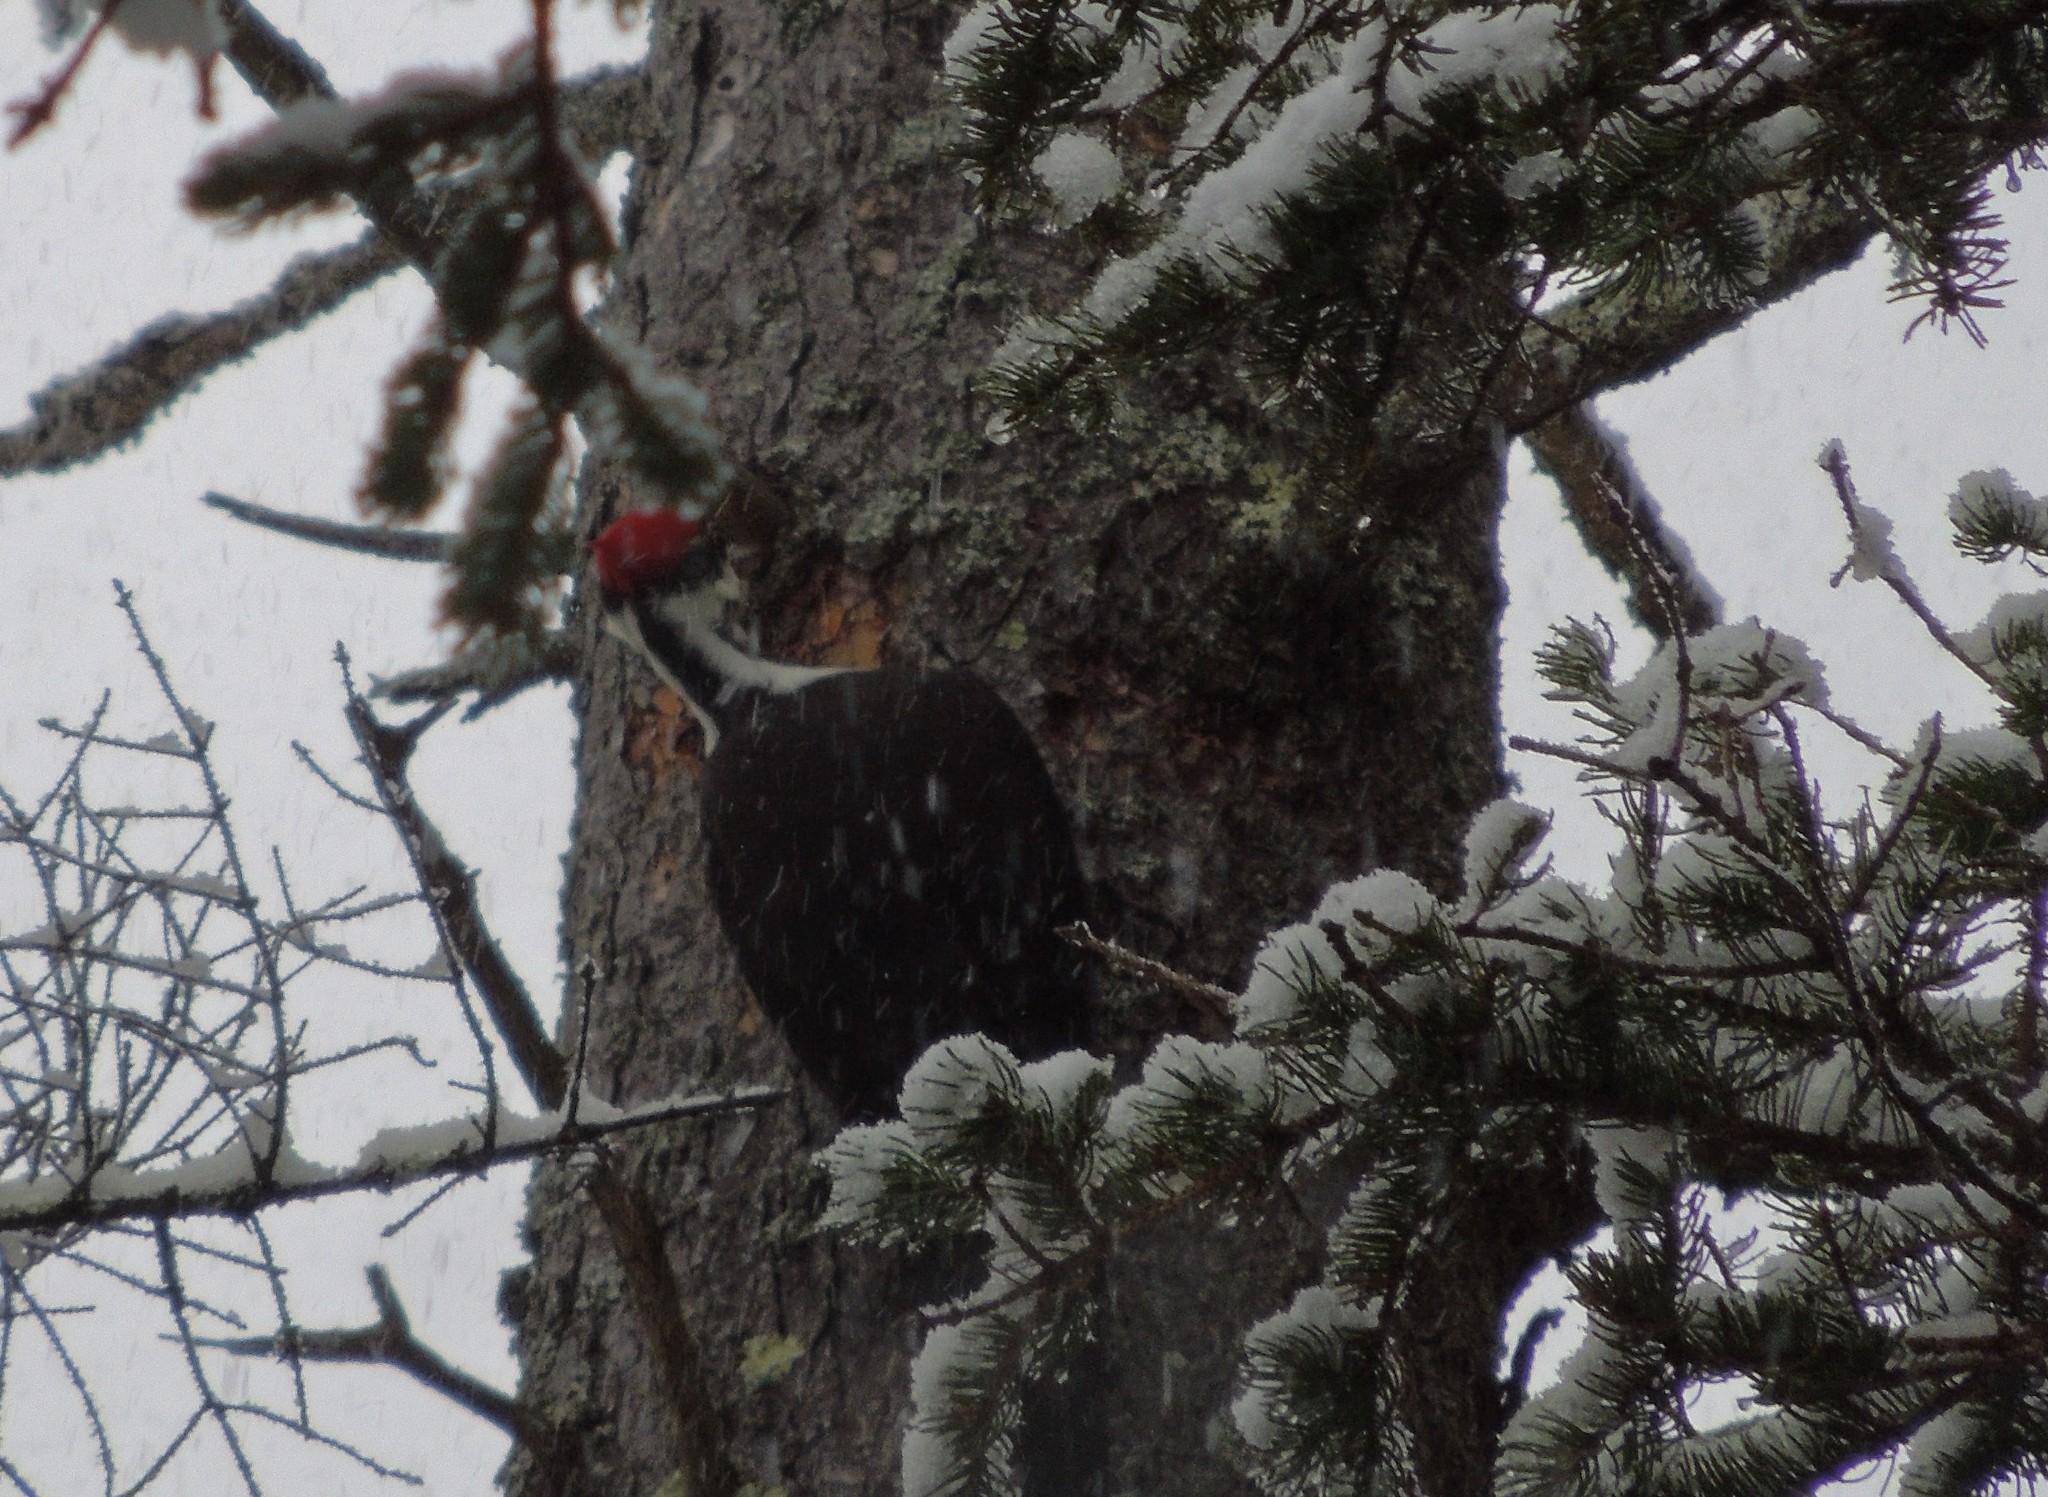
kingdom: Animalia
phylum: Chordata
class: Aves
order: Piciformes
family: Picidae
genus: Dryocopus
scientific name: Dryocopus pileatus
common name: Pileated woodpecker
